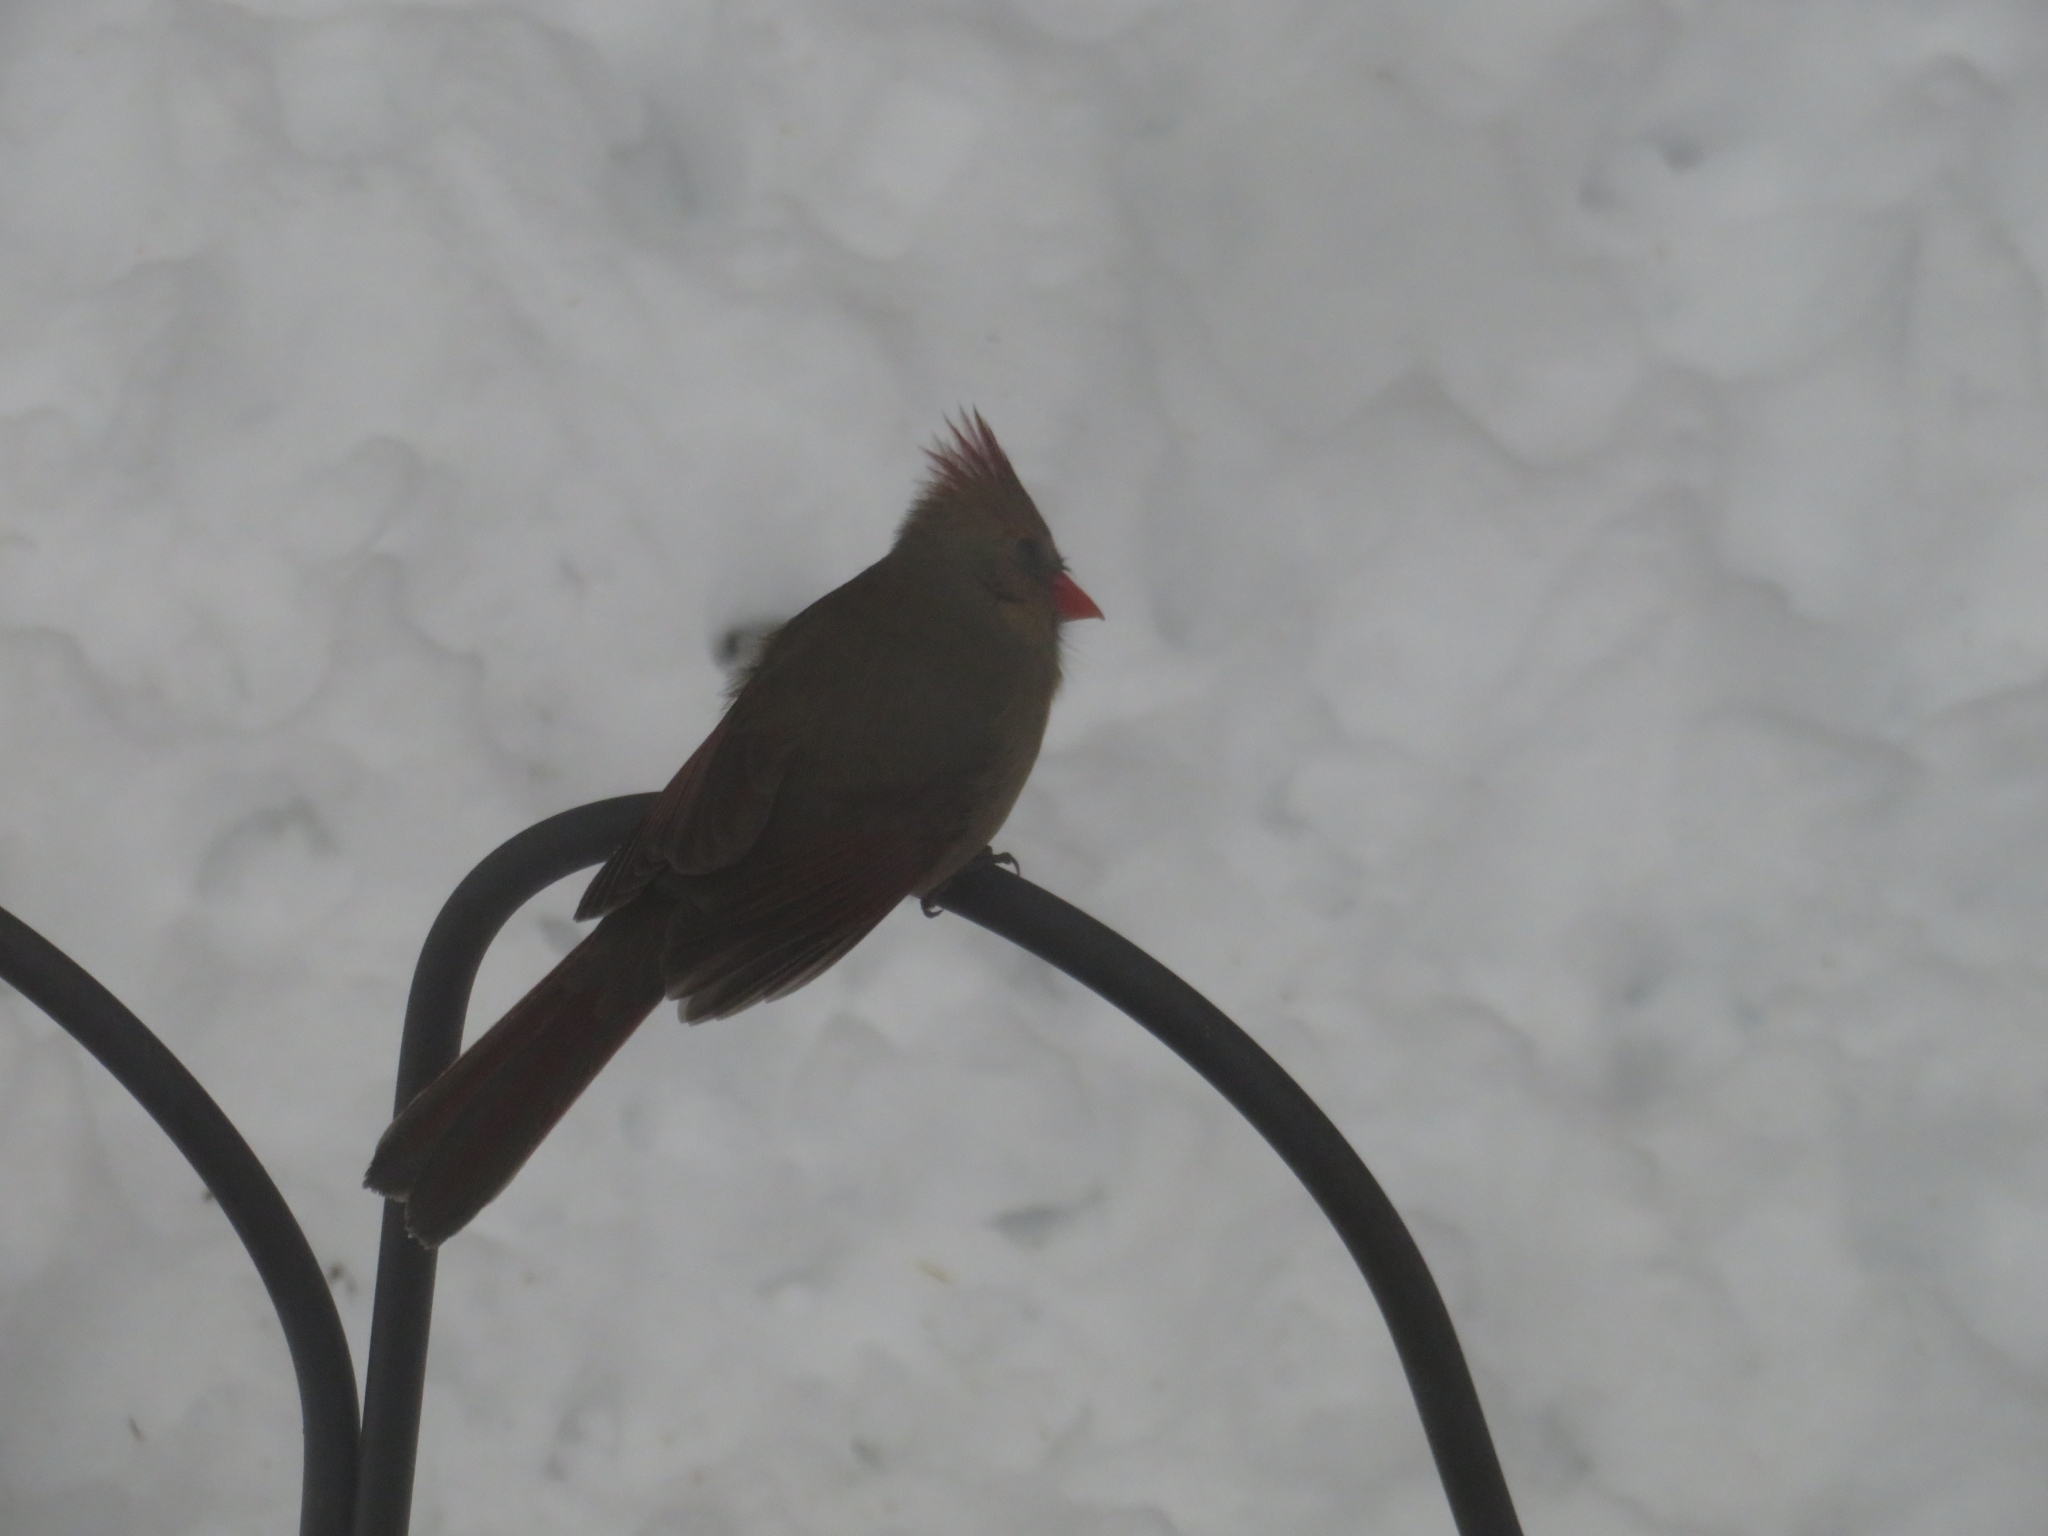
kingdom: Animalia
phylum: Chordata
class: Aves
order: Passeriformes
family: Cardinalidae
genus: Cardinalis
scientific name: Cardinalis cardinalis
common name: Northern cardinal
